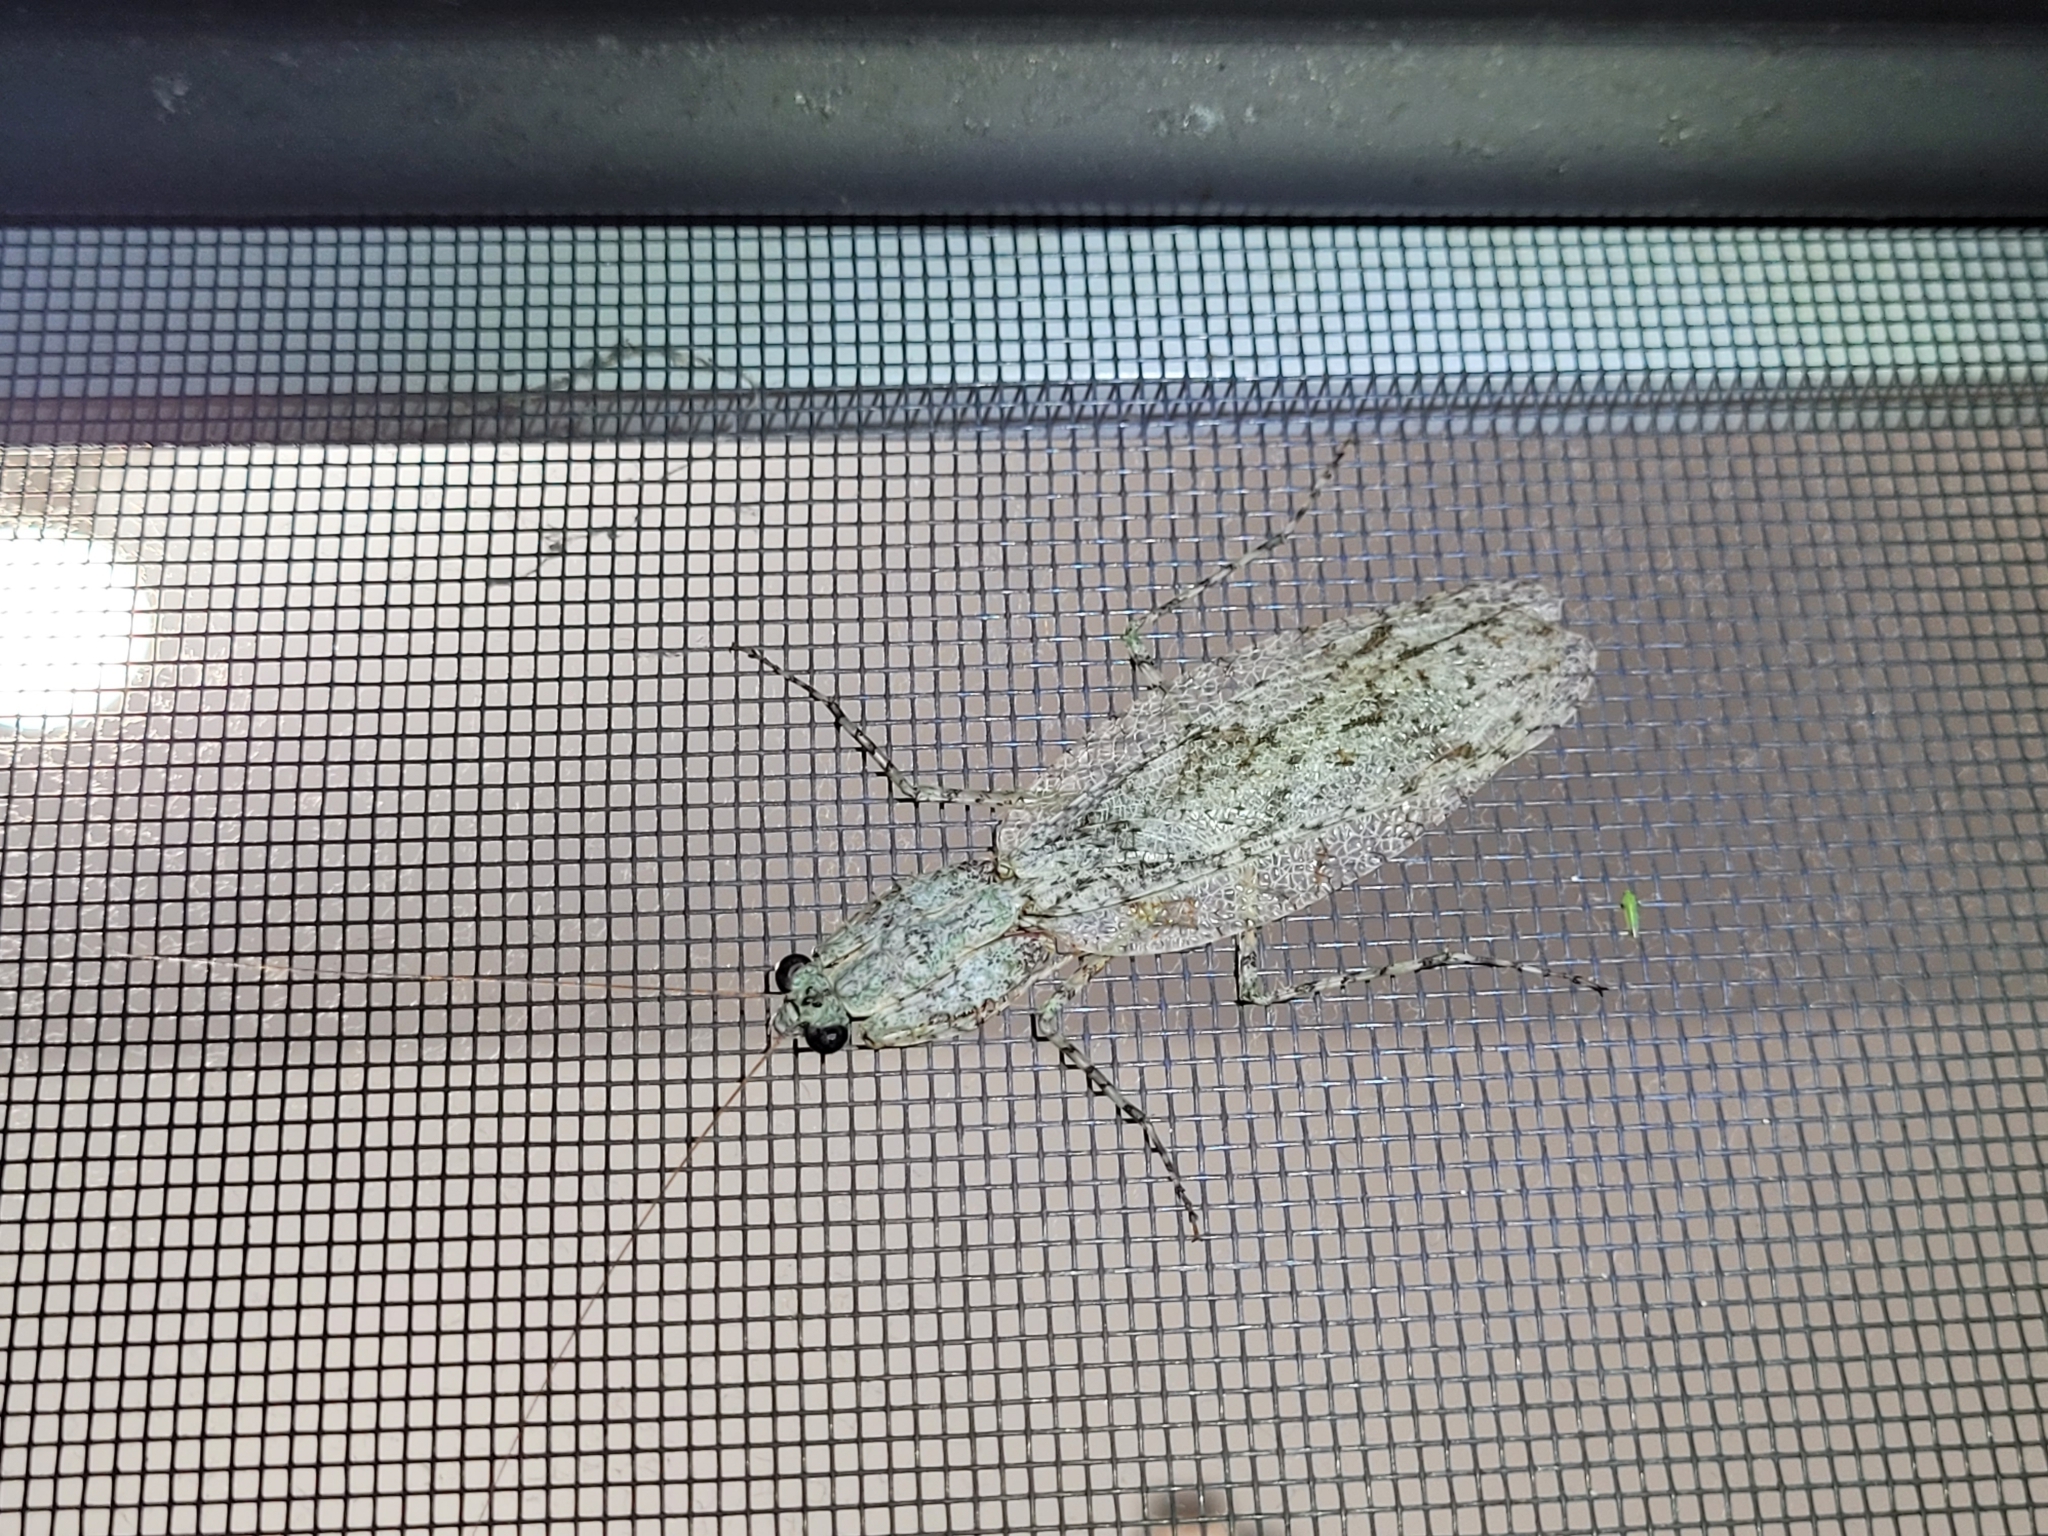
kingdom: Animalia
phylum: Arthropoda
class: Insecta
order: Mantodea
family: Epaphroditidae
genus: Gonatista
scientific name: Gonatista reticulata
